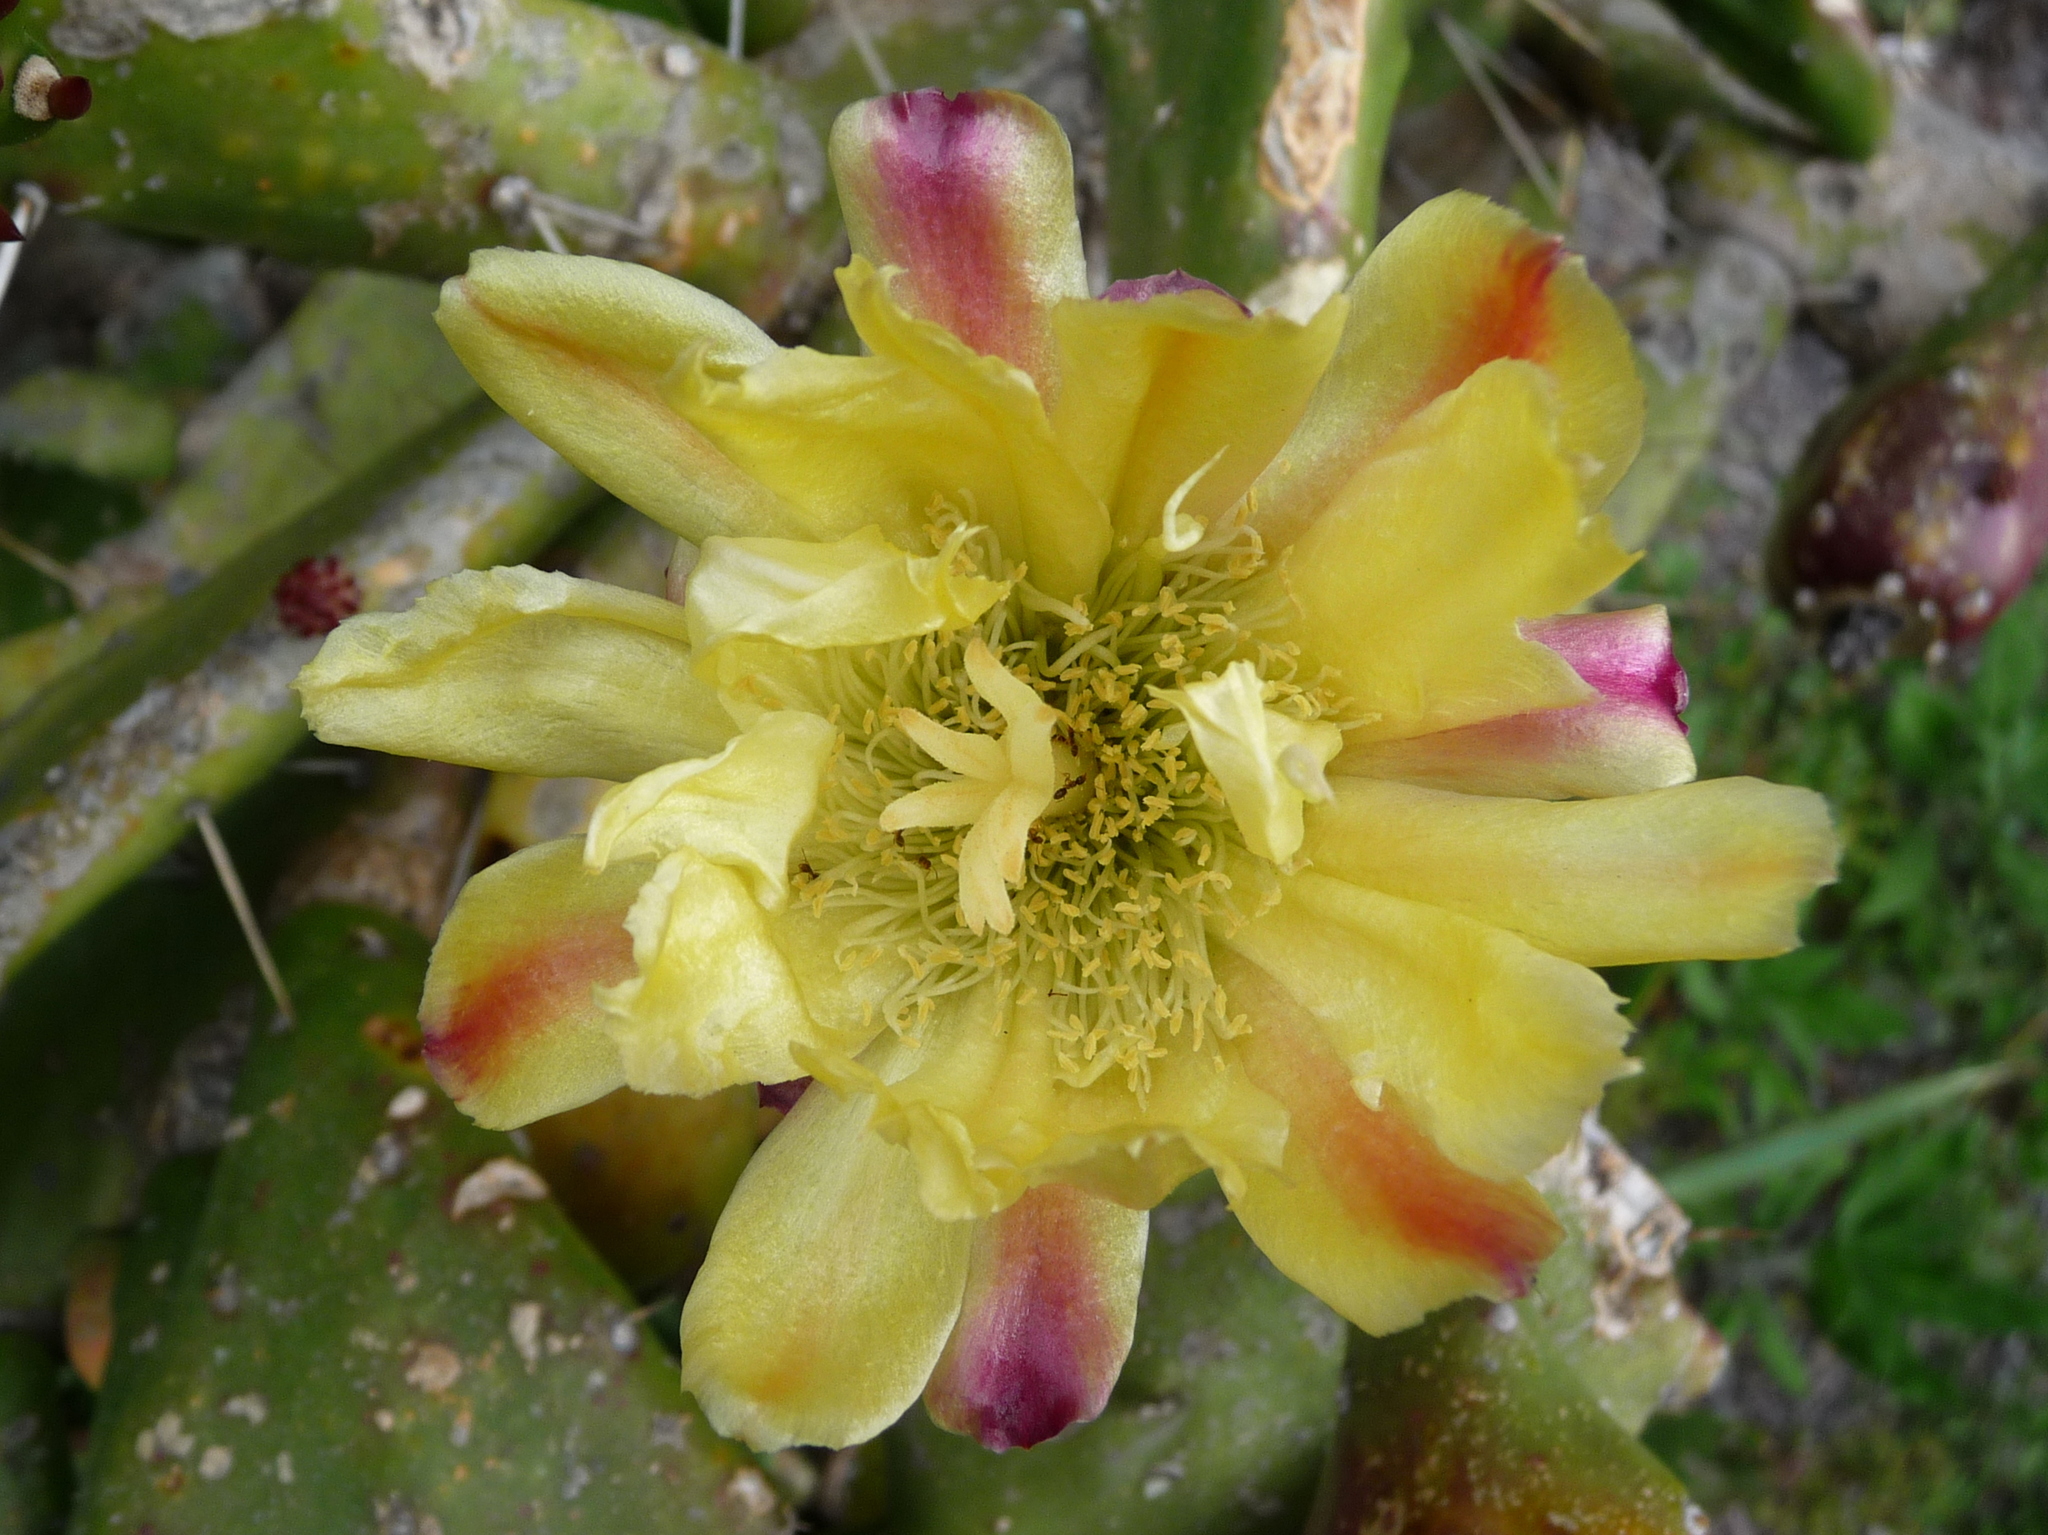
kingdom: Plantae
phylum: Tracheophyta
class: Magnoliopsida
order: Caryophyllales
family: Cactaceae
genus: Opuntia
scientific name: Opuntia monacantha
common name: Common pricklypear
